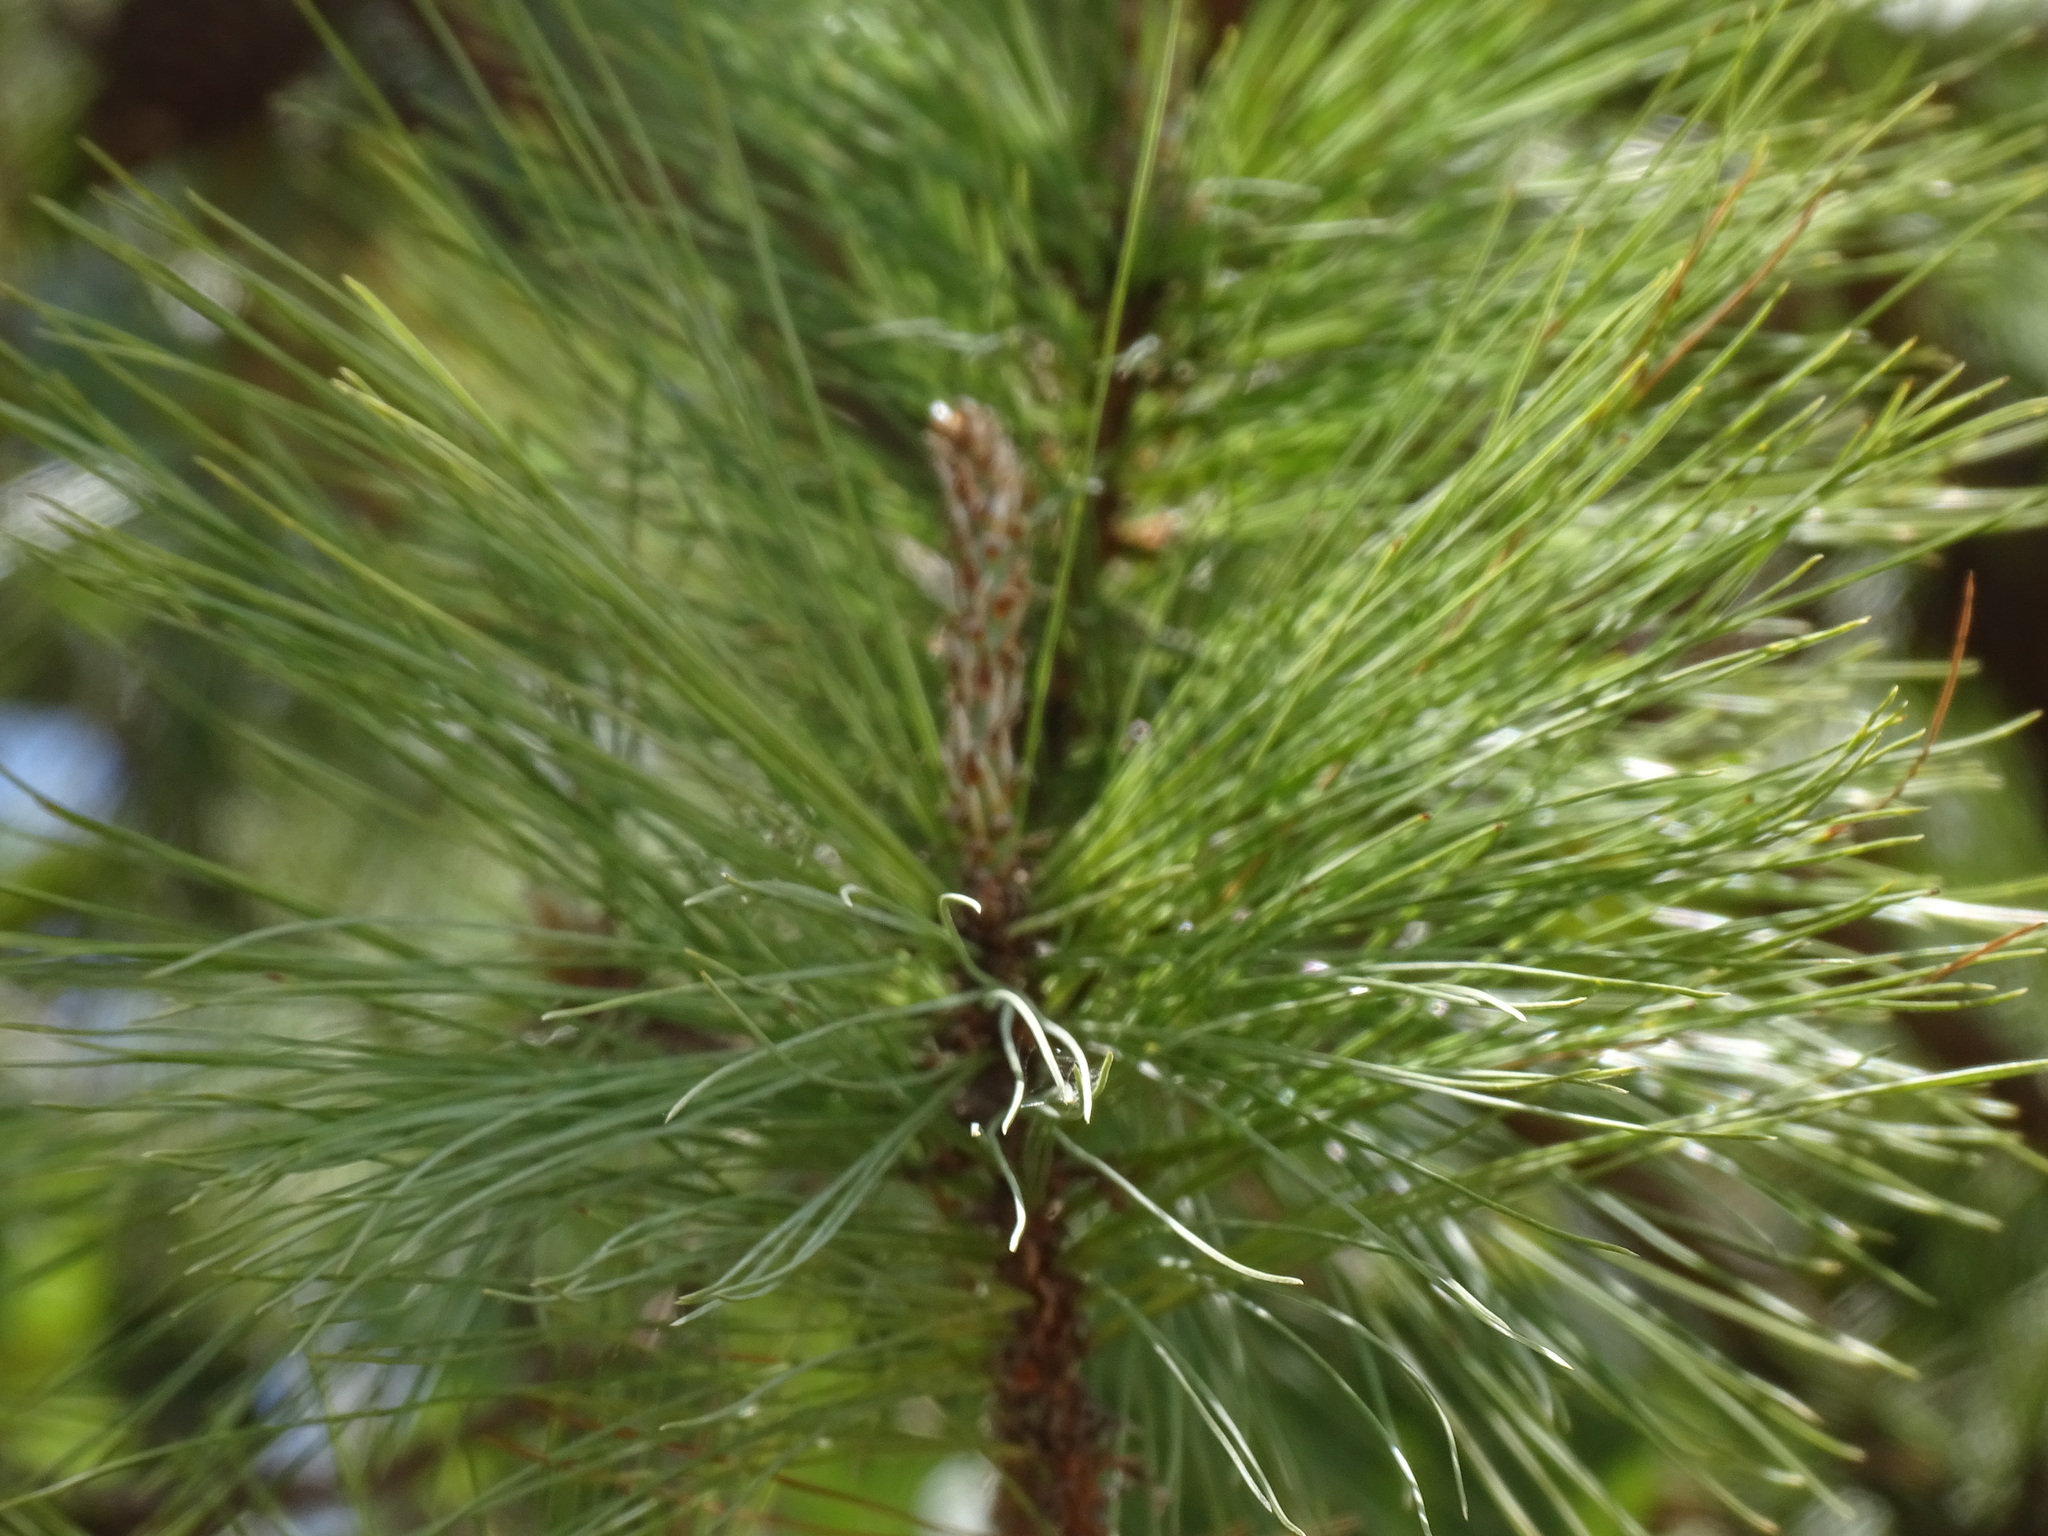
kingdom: Plantae
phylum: Tracheophyta
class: Pinopsida
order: Pinales
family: Pinaceae
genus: Pinus
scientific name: Pinus teocote
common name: Aztec pine
